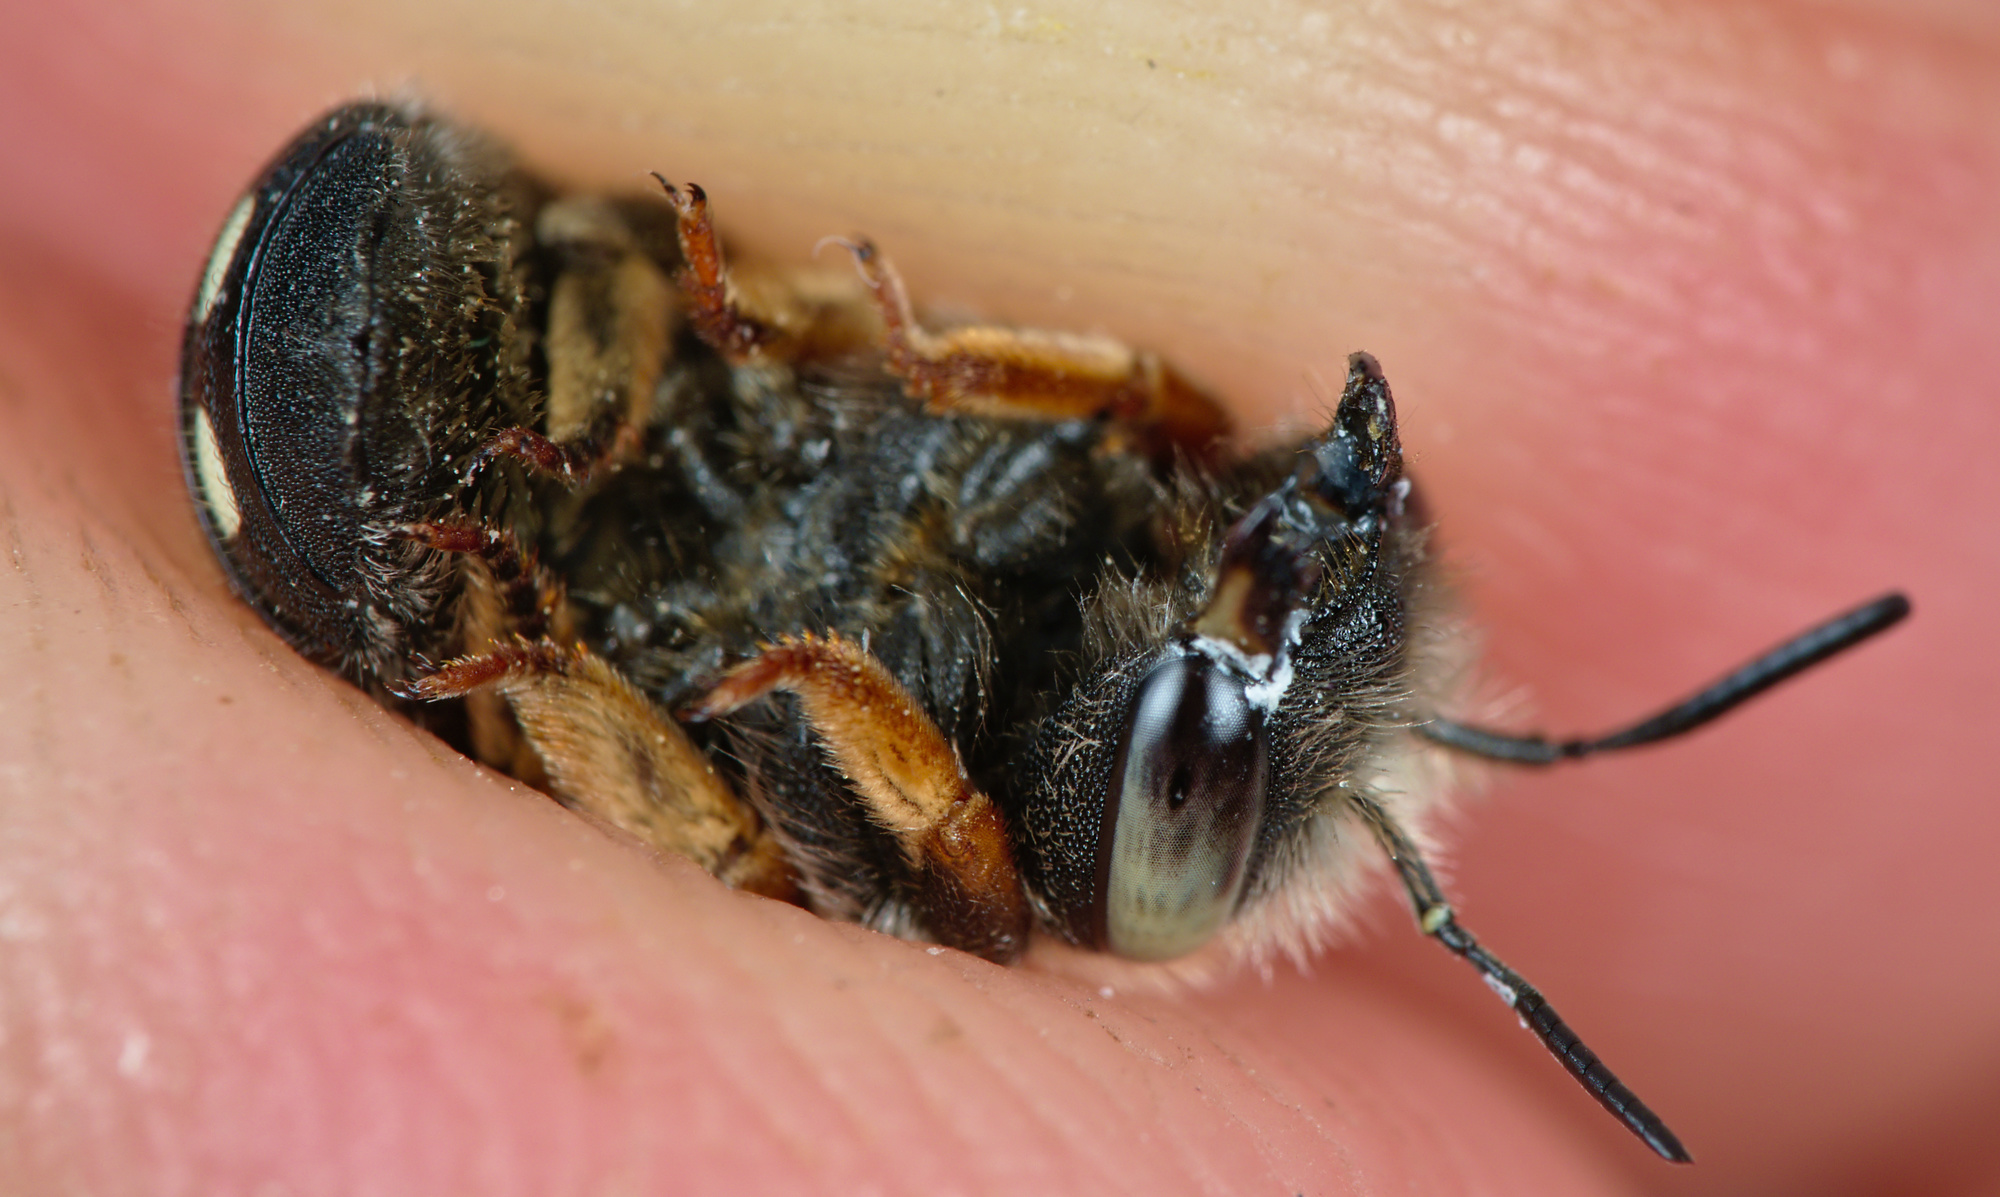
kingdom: Animalia
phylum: Arthropoda
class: Insecta
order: Hymenoptera
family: Megachilidae
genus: Anthidium
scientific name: Anthidium punctatum
